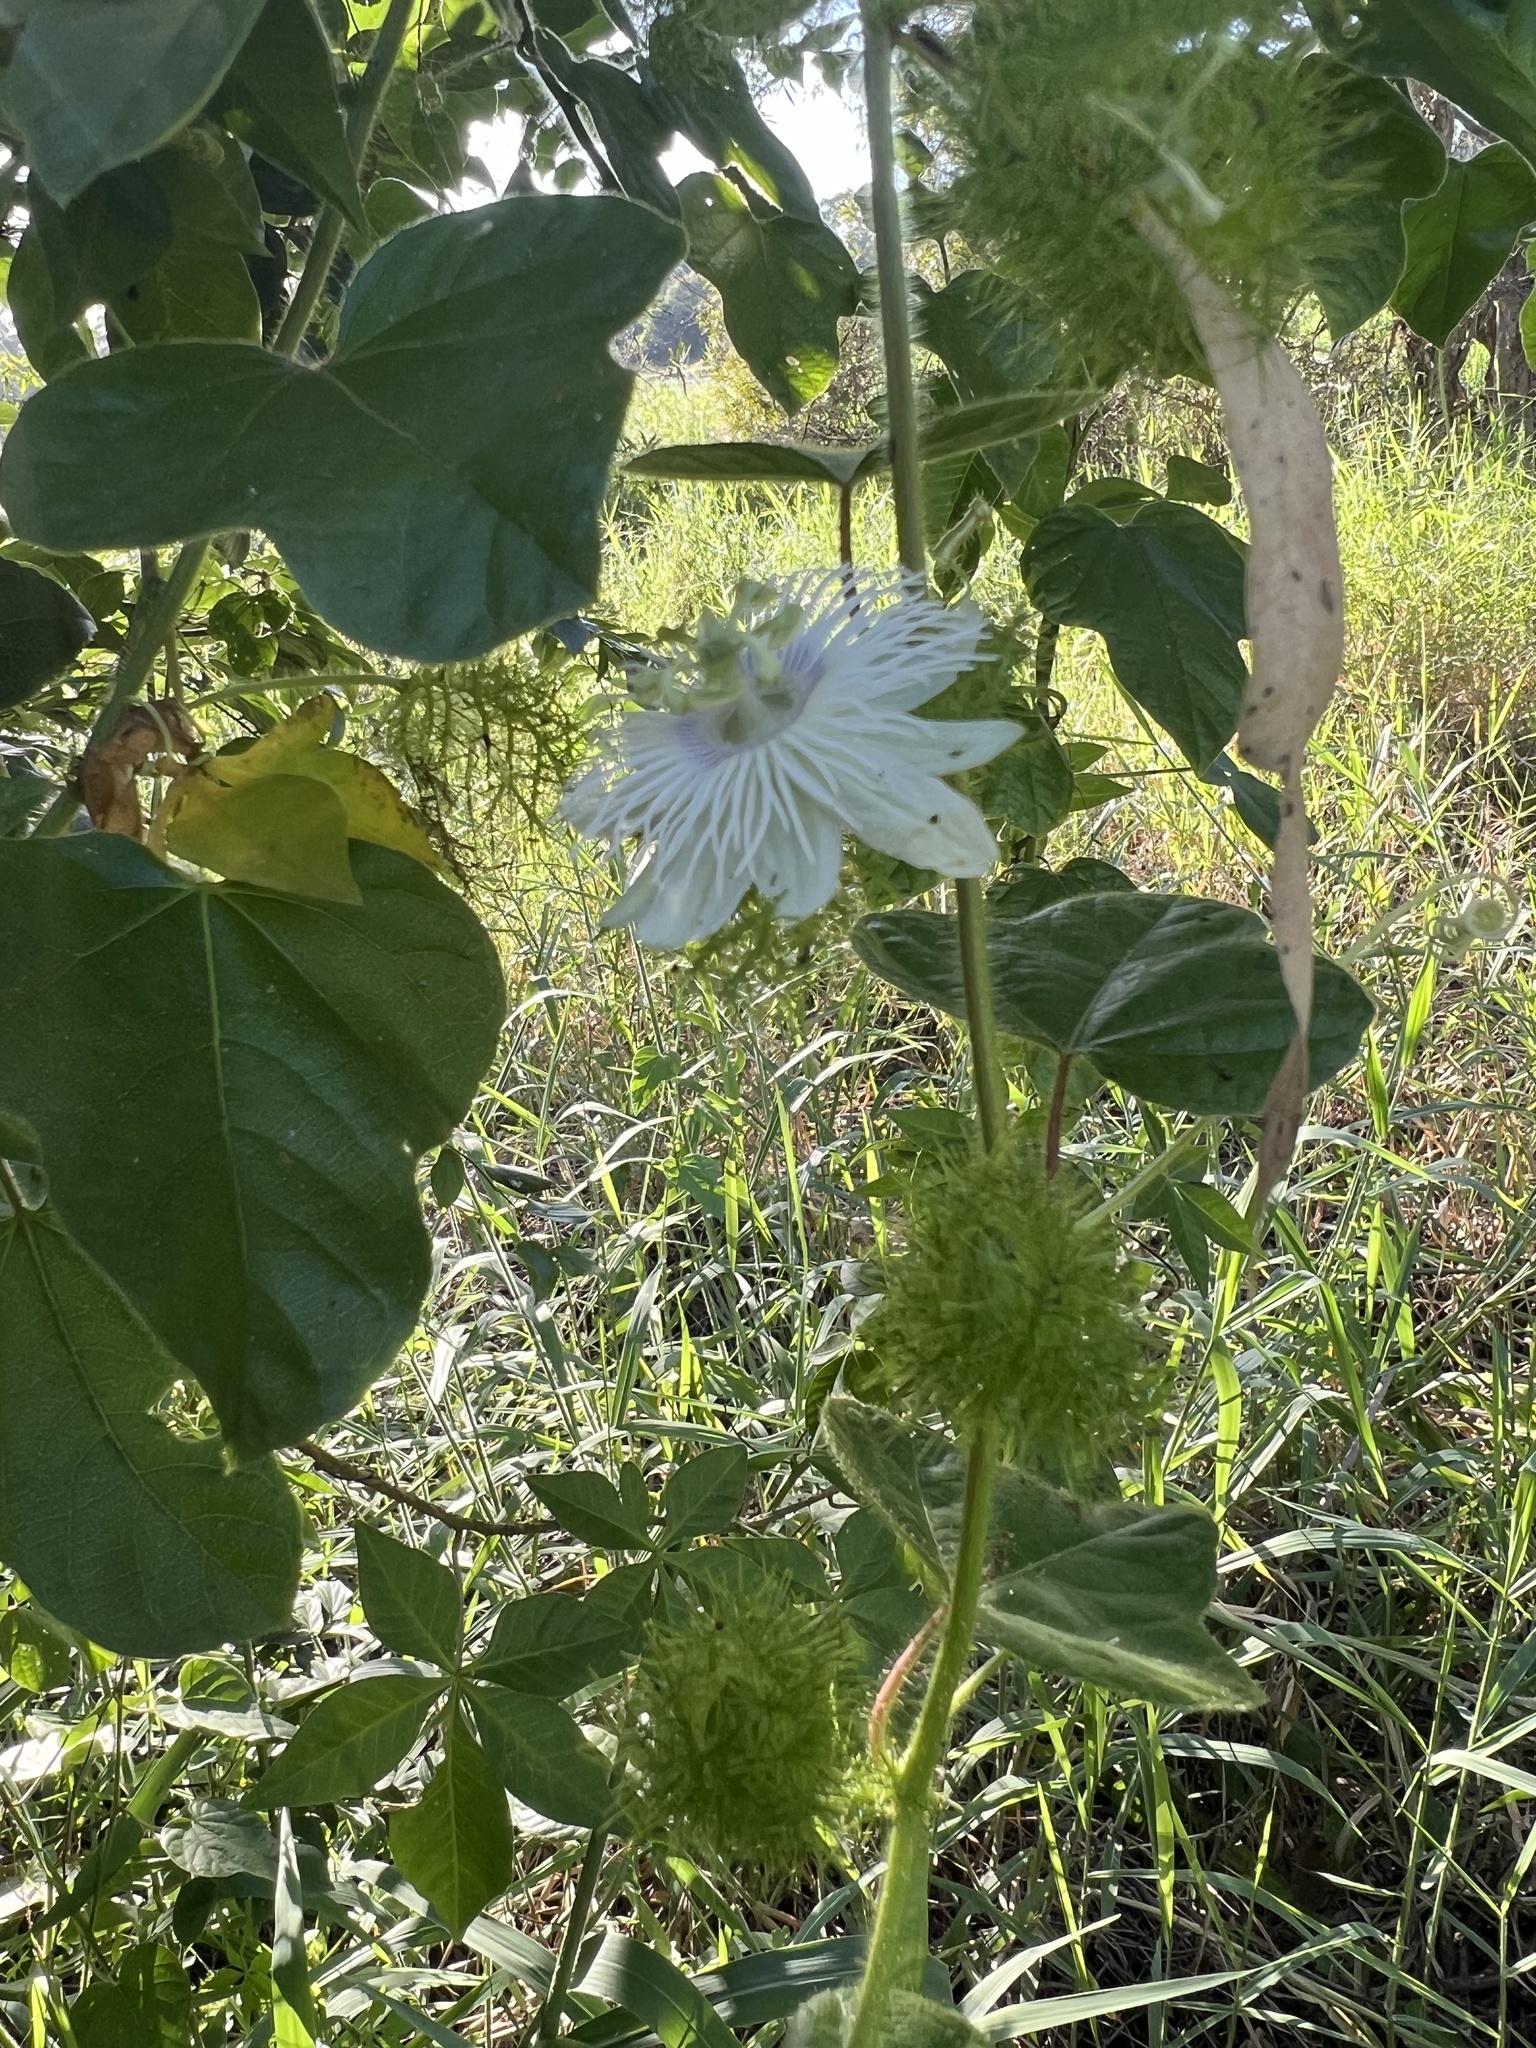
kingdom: Plantae
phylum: Tracheophyta
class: Magnoliopsida
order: Malpighiales
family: Passifloraceae
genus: Passiflora
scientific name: Passiflora foetida
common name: Fetid passionflower
